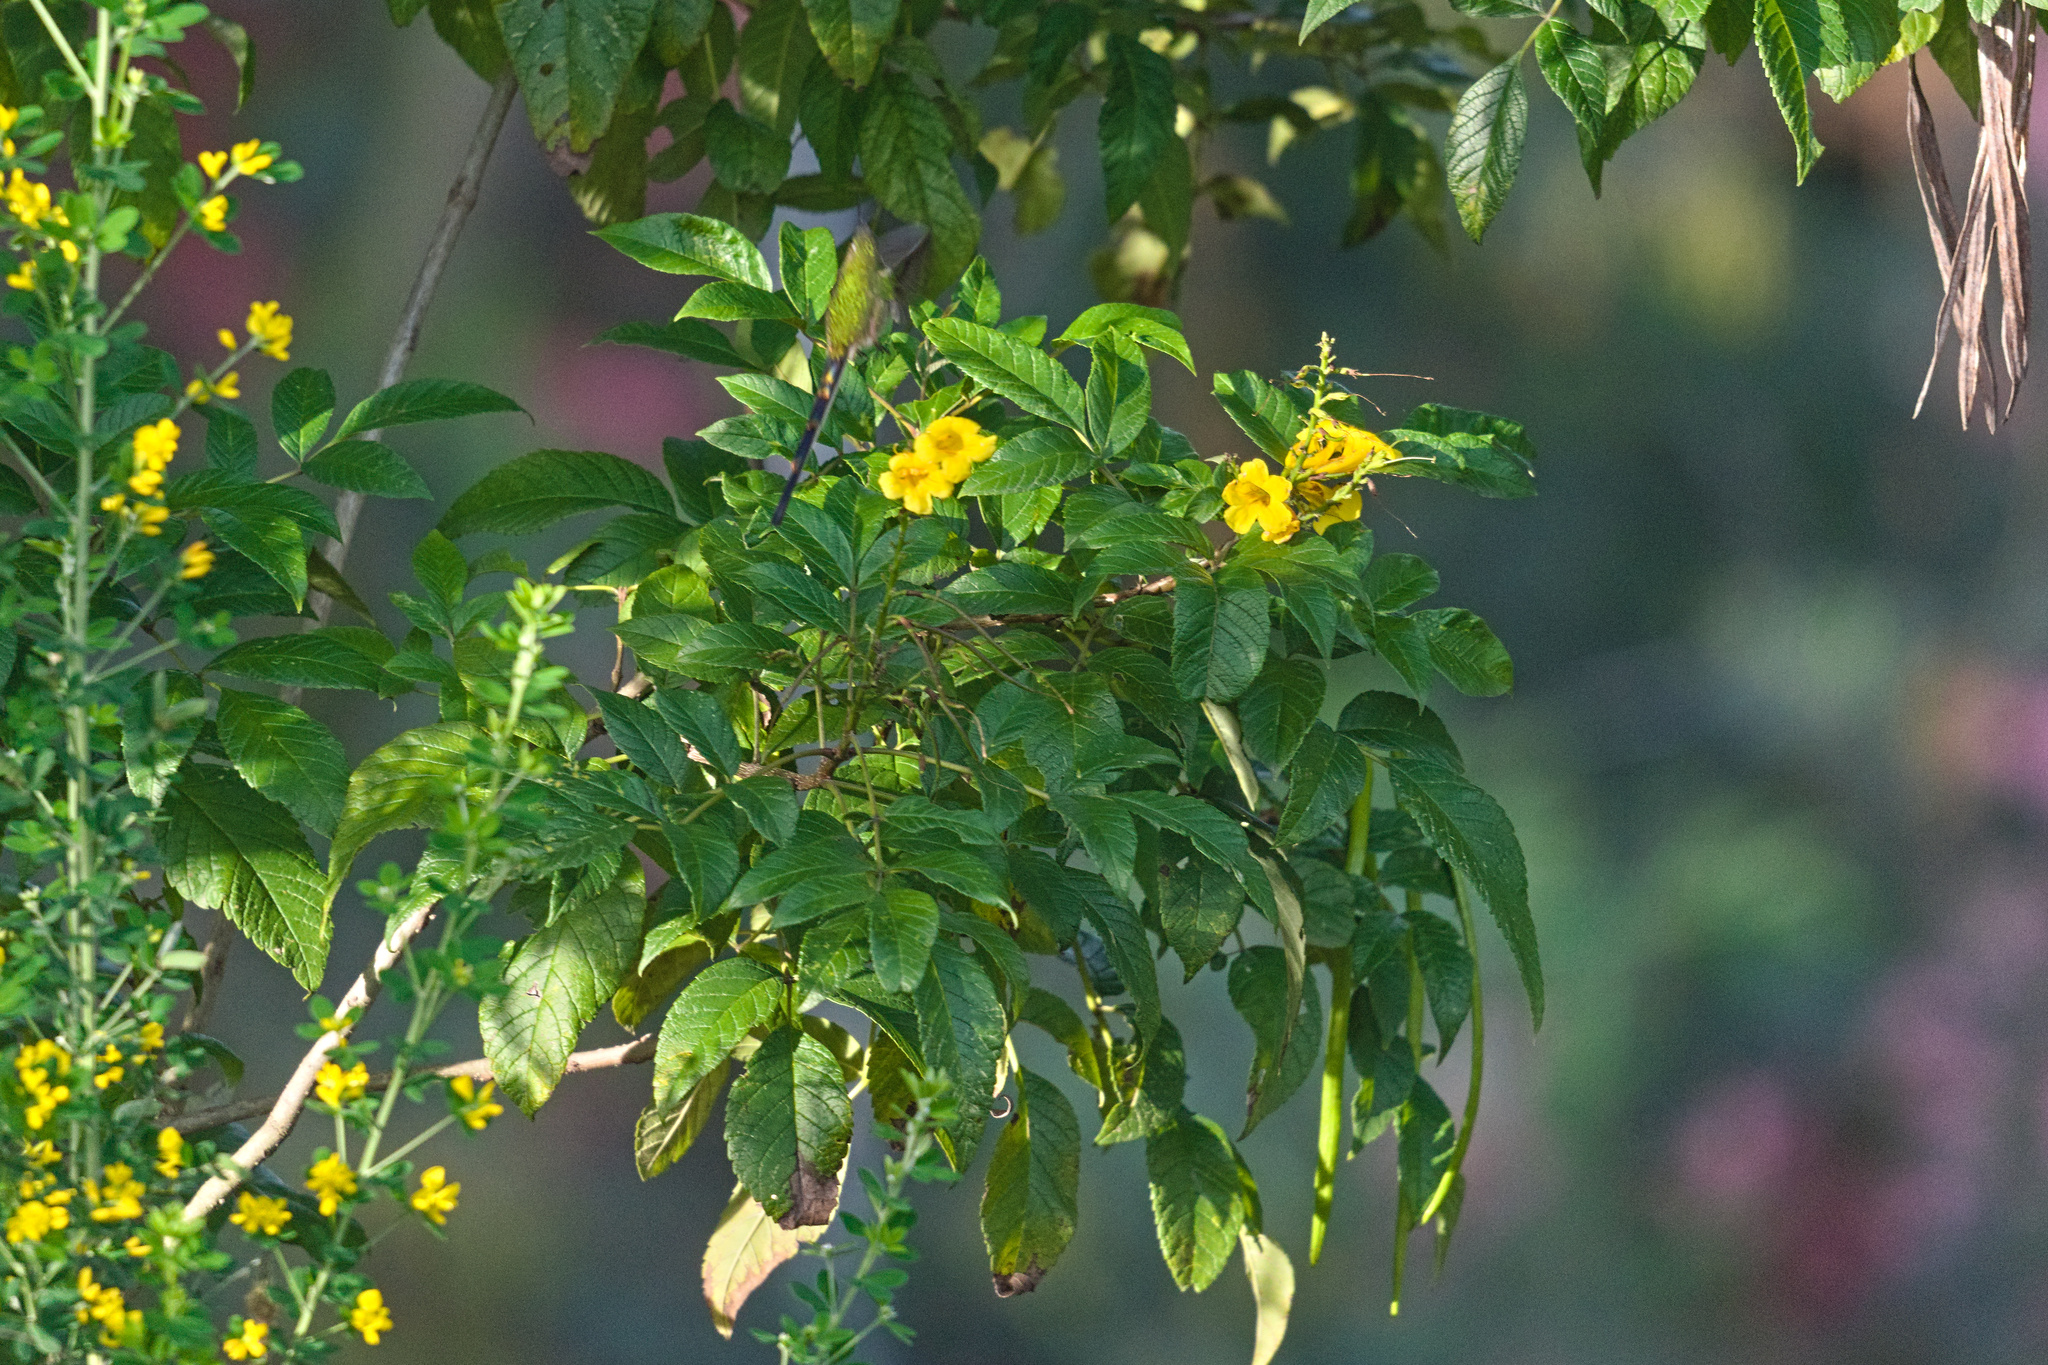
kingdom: Plantae
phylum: Tracheophyta
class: Magnoliopsida
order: Lamiales
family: Bignoniaceae
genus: Tecoma
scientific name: Tecoma stans
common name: Yellow trumpetbush
